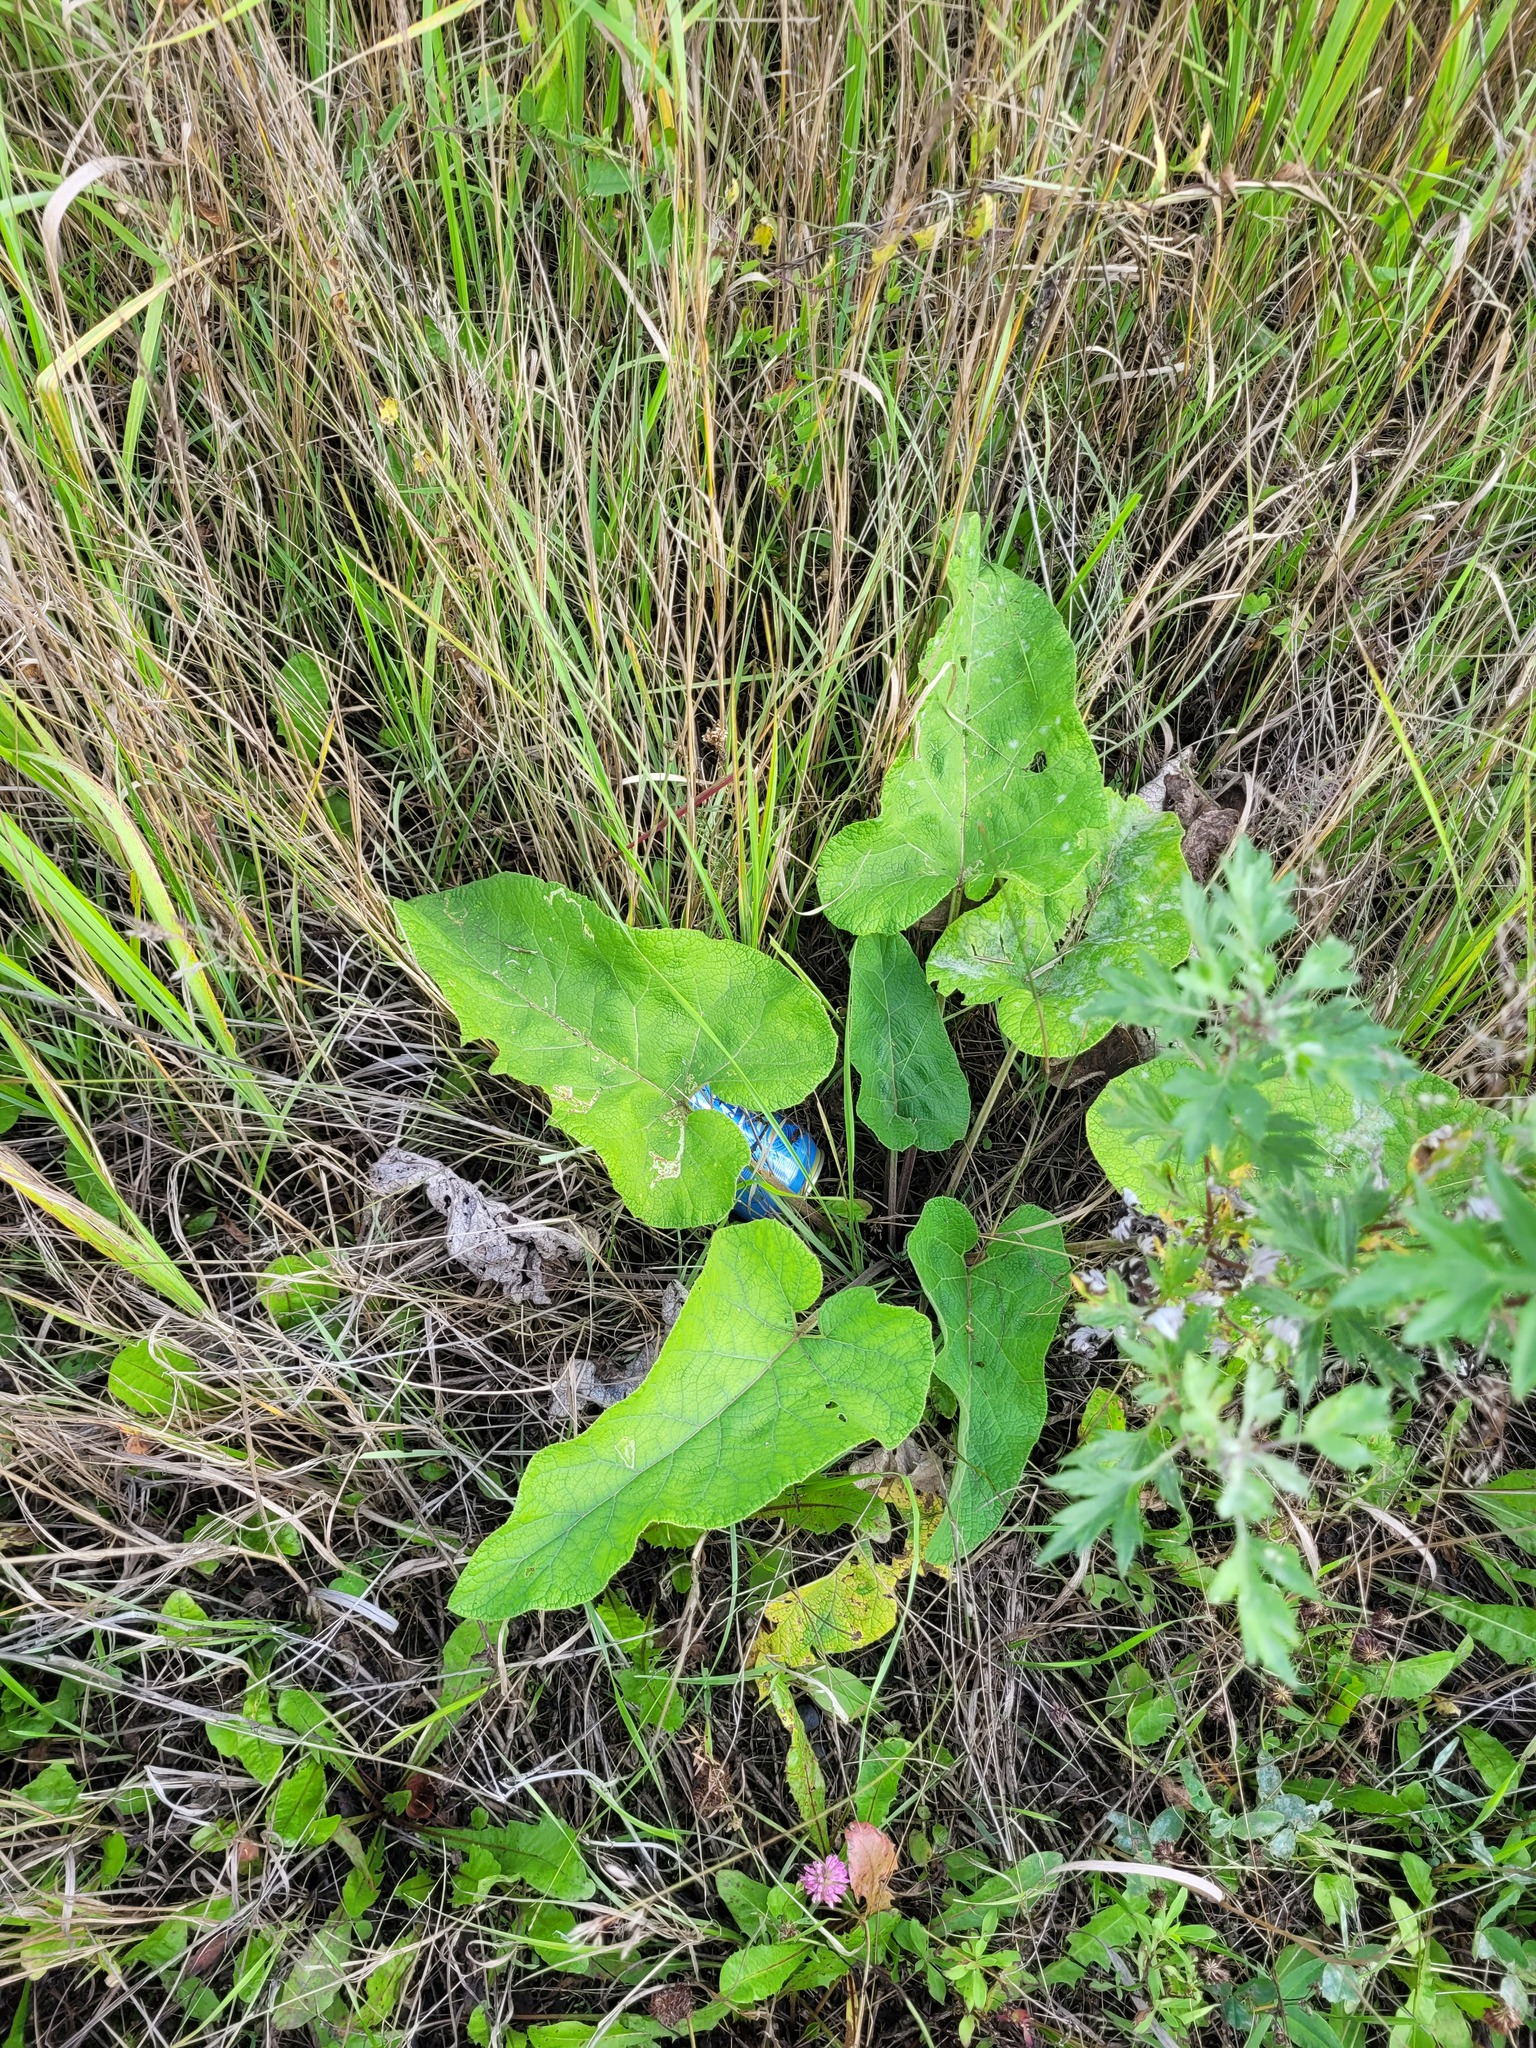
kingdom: Plantae
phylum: Tracheophyta
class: Magnoliopsida
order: Asterales
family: Asteraceae
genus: Arctium
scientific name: Arctium
